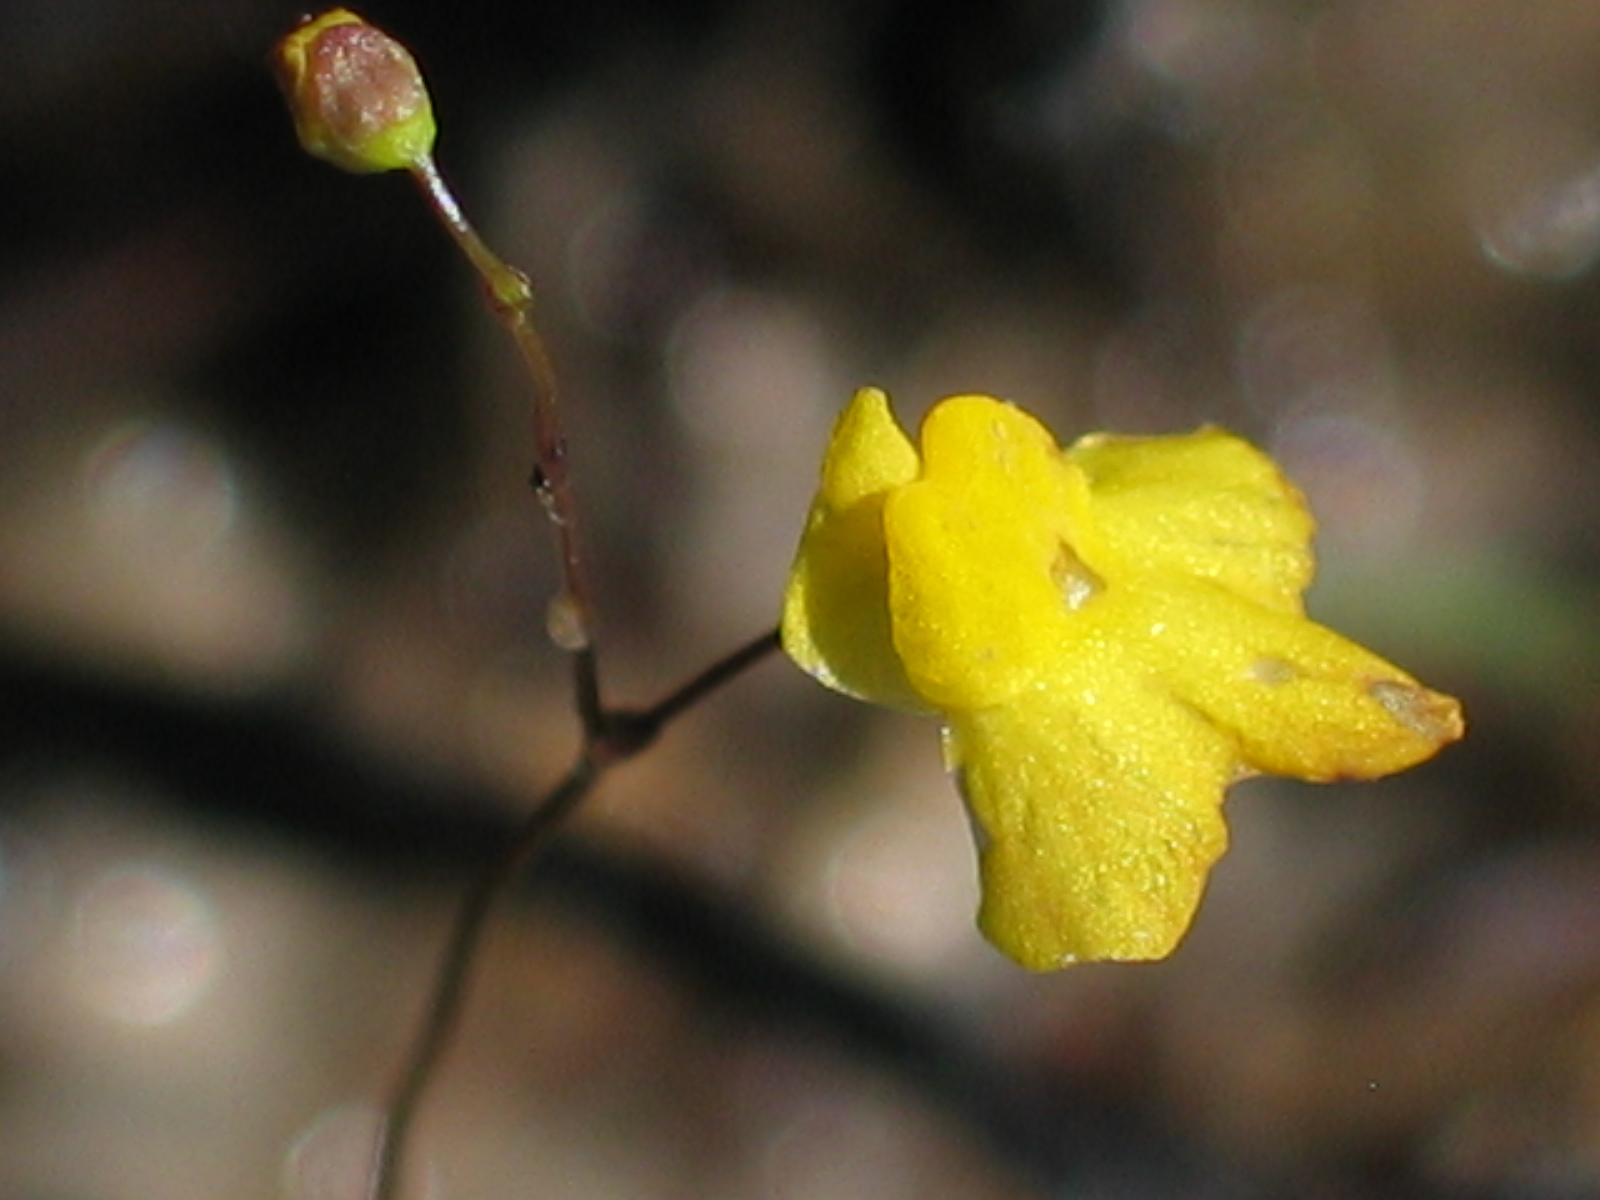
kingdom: Plantae
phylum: Tracheophyta
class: Magnoliopsida
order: Lamiales
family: Lentibulariaceae
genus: Utricularia
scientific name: Utricularia subulata
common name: Tiny bladderwort
